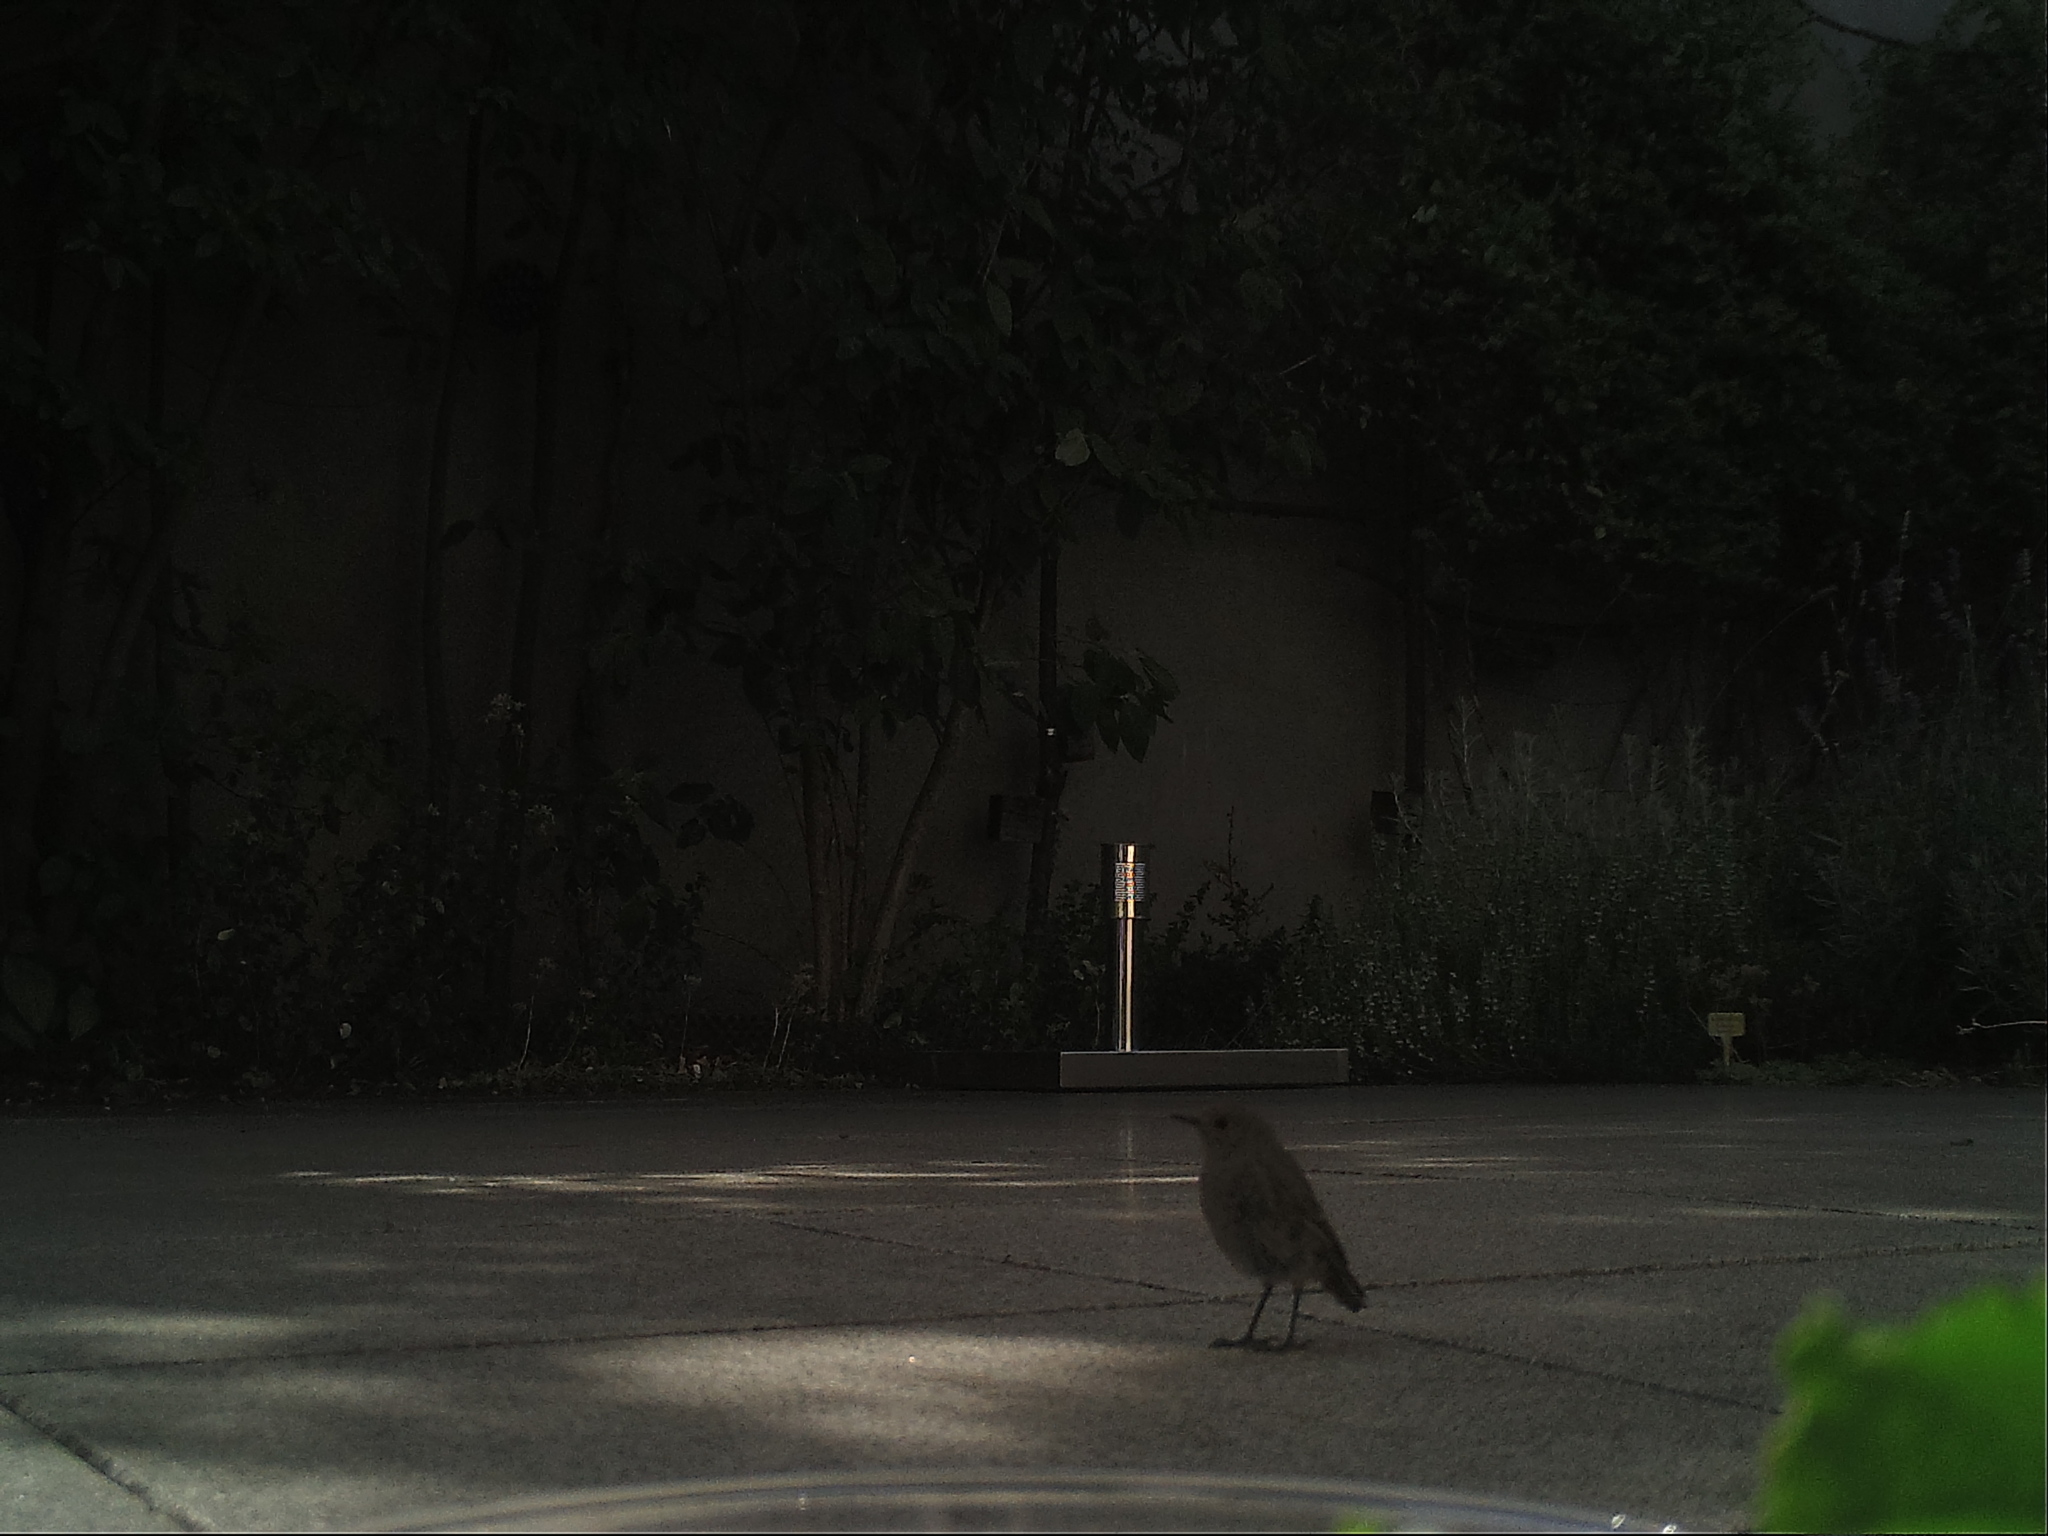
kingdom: Animalia
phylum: Chordata
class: Aves
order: Passeriformes
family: Muscicapidae
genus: Phoenicurus
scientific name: Phoenicurus ochruros
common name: Black redstart
